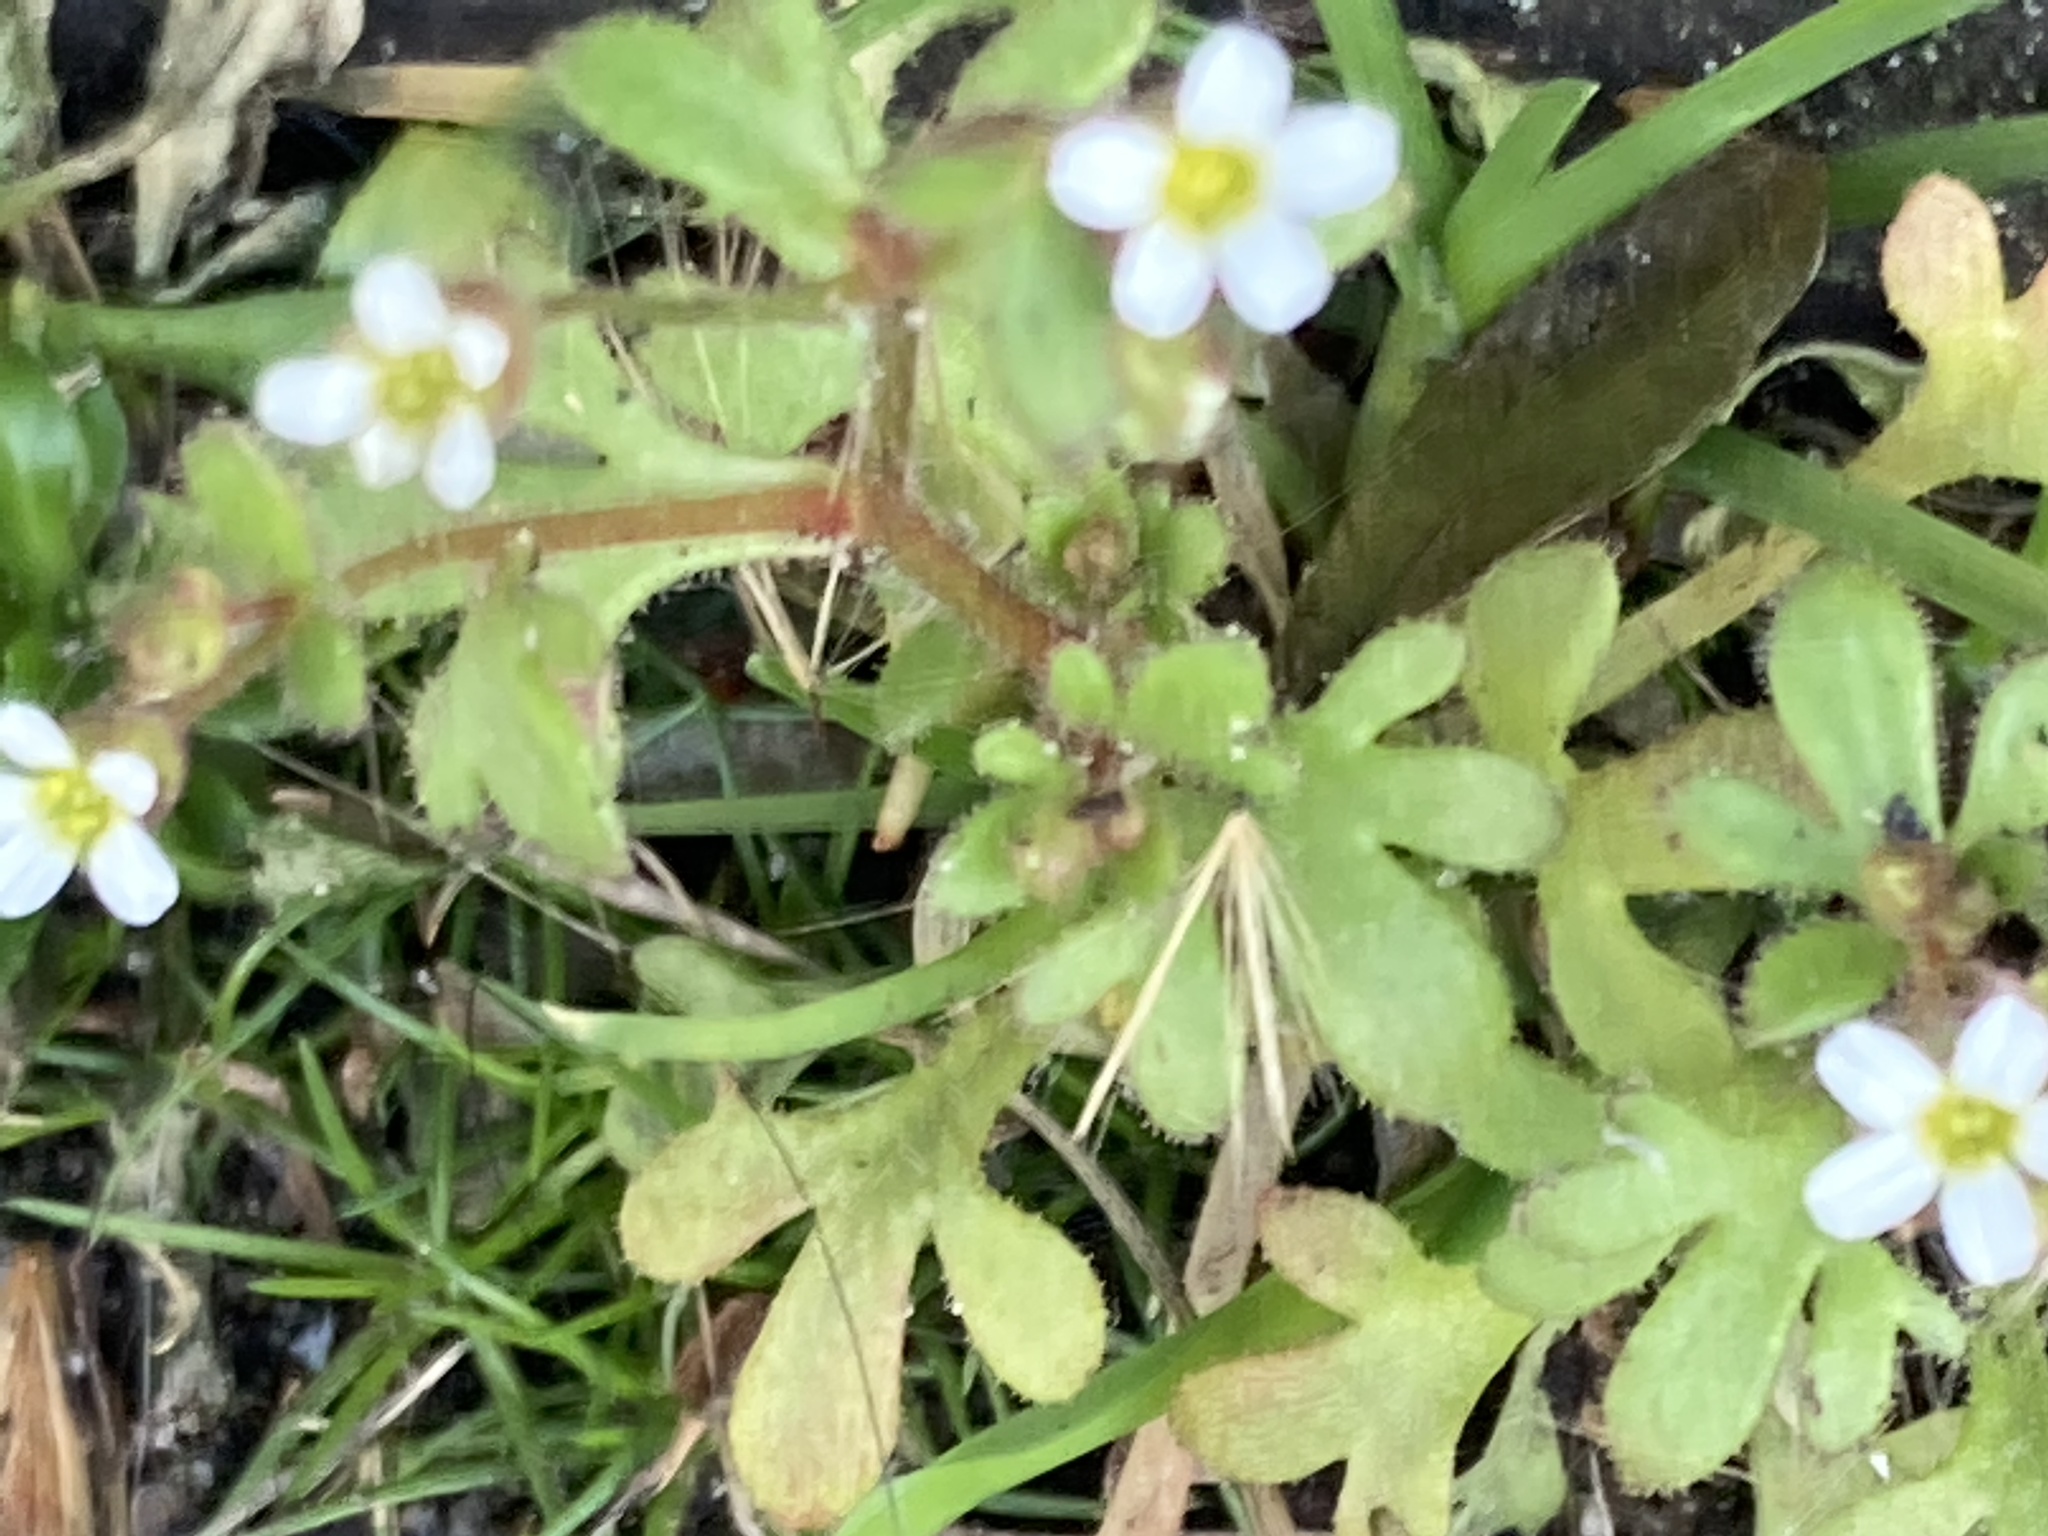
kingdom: Plantae
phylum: Tracheophyta
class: Magnoliopsida
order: Saxifragales
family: Saxifragaceae
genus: Saxifraga
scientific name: Saxifraga tridactylites
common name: Rue-leaved saxifrage
